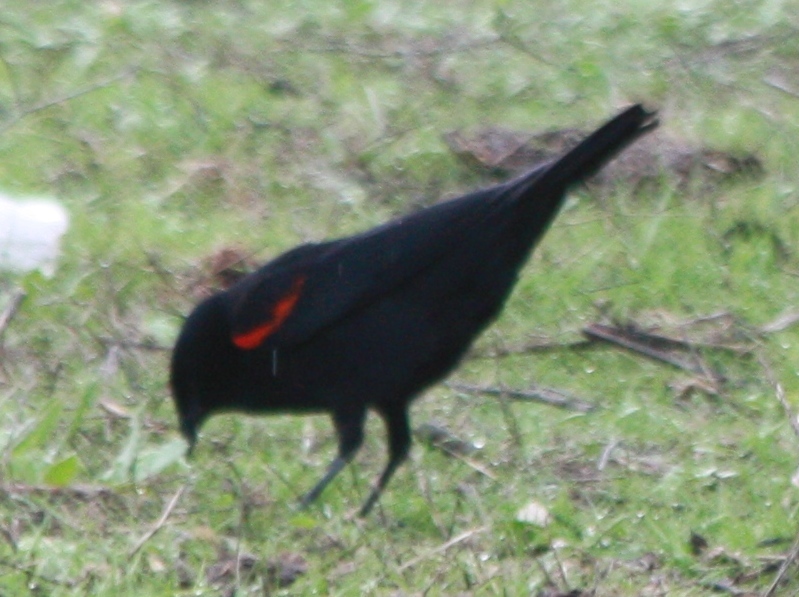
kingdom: Animalia
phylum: Chordata
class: Aves
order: Passeriformes
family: Icteridae
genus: Agelaius
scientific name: Agelaius phoeniceus
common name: Red-winged blackbird
